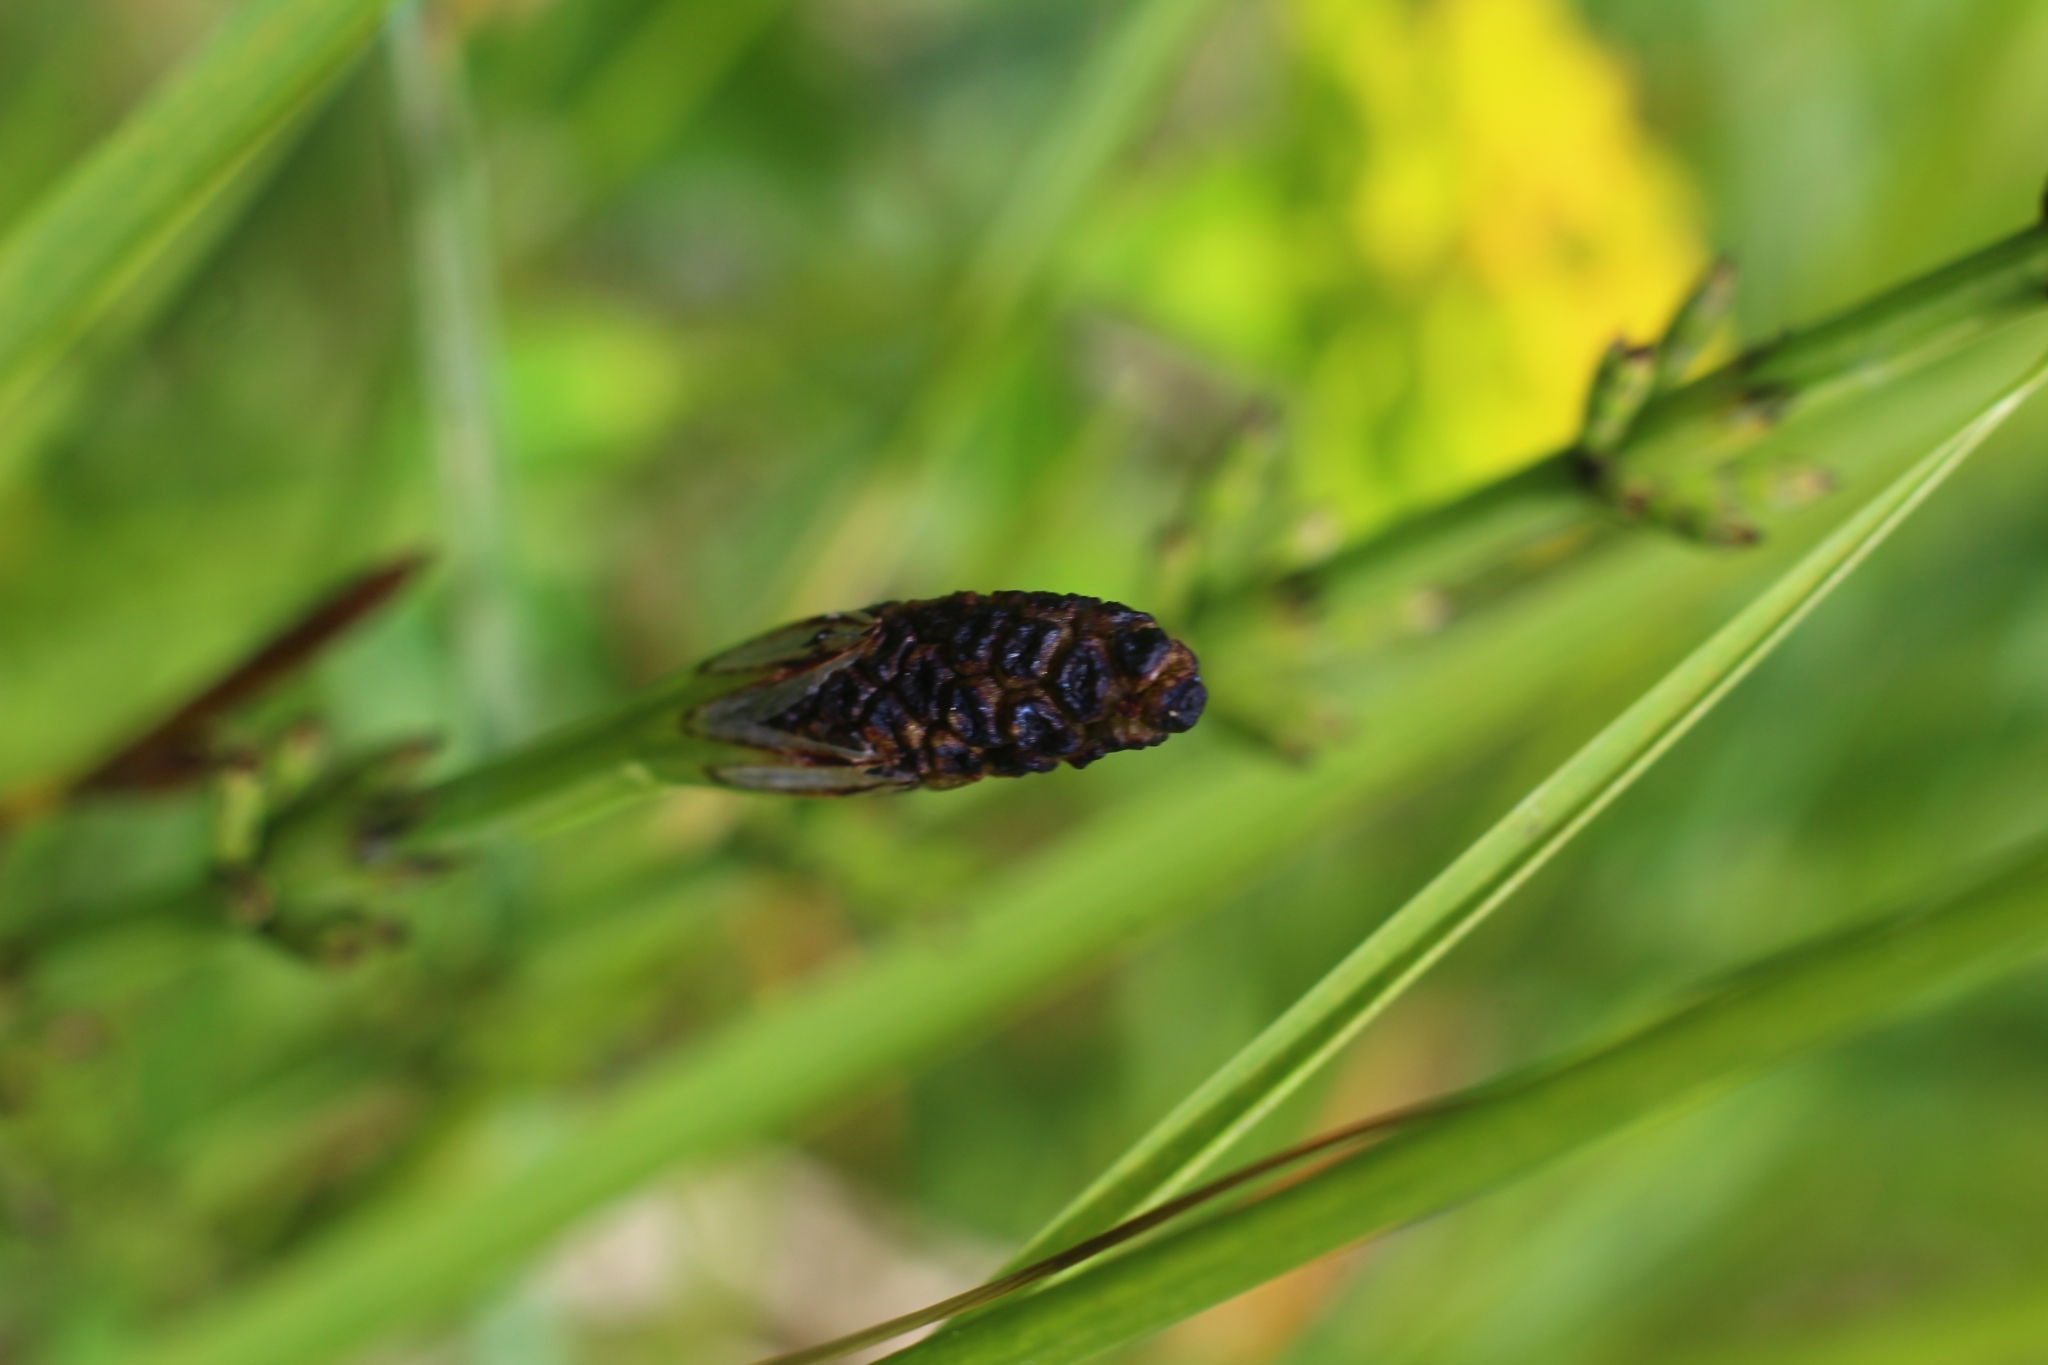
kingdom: Plantae
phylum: Tracheophyta
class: Polypodiopsida
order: Equisetales
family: Equisetaceae
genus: Equisetum
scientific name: Equisetum palustre
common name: Marsh horsetail
